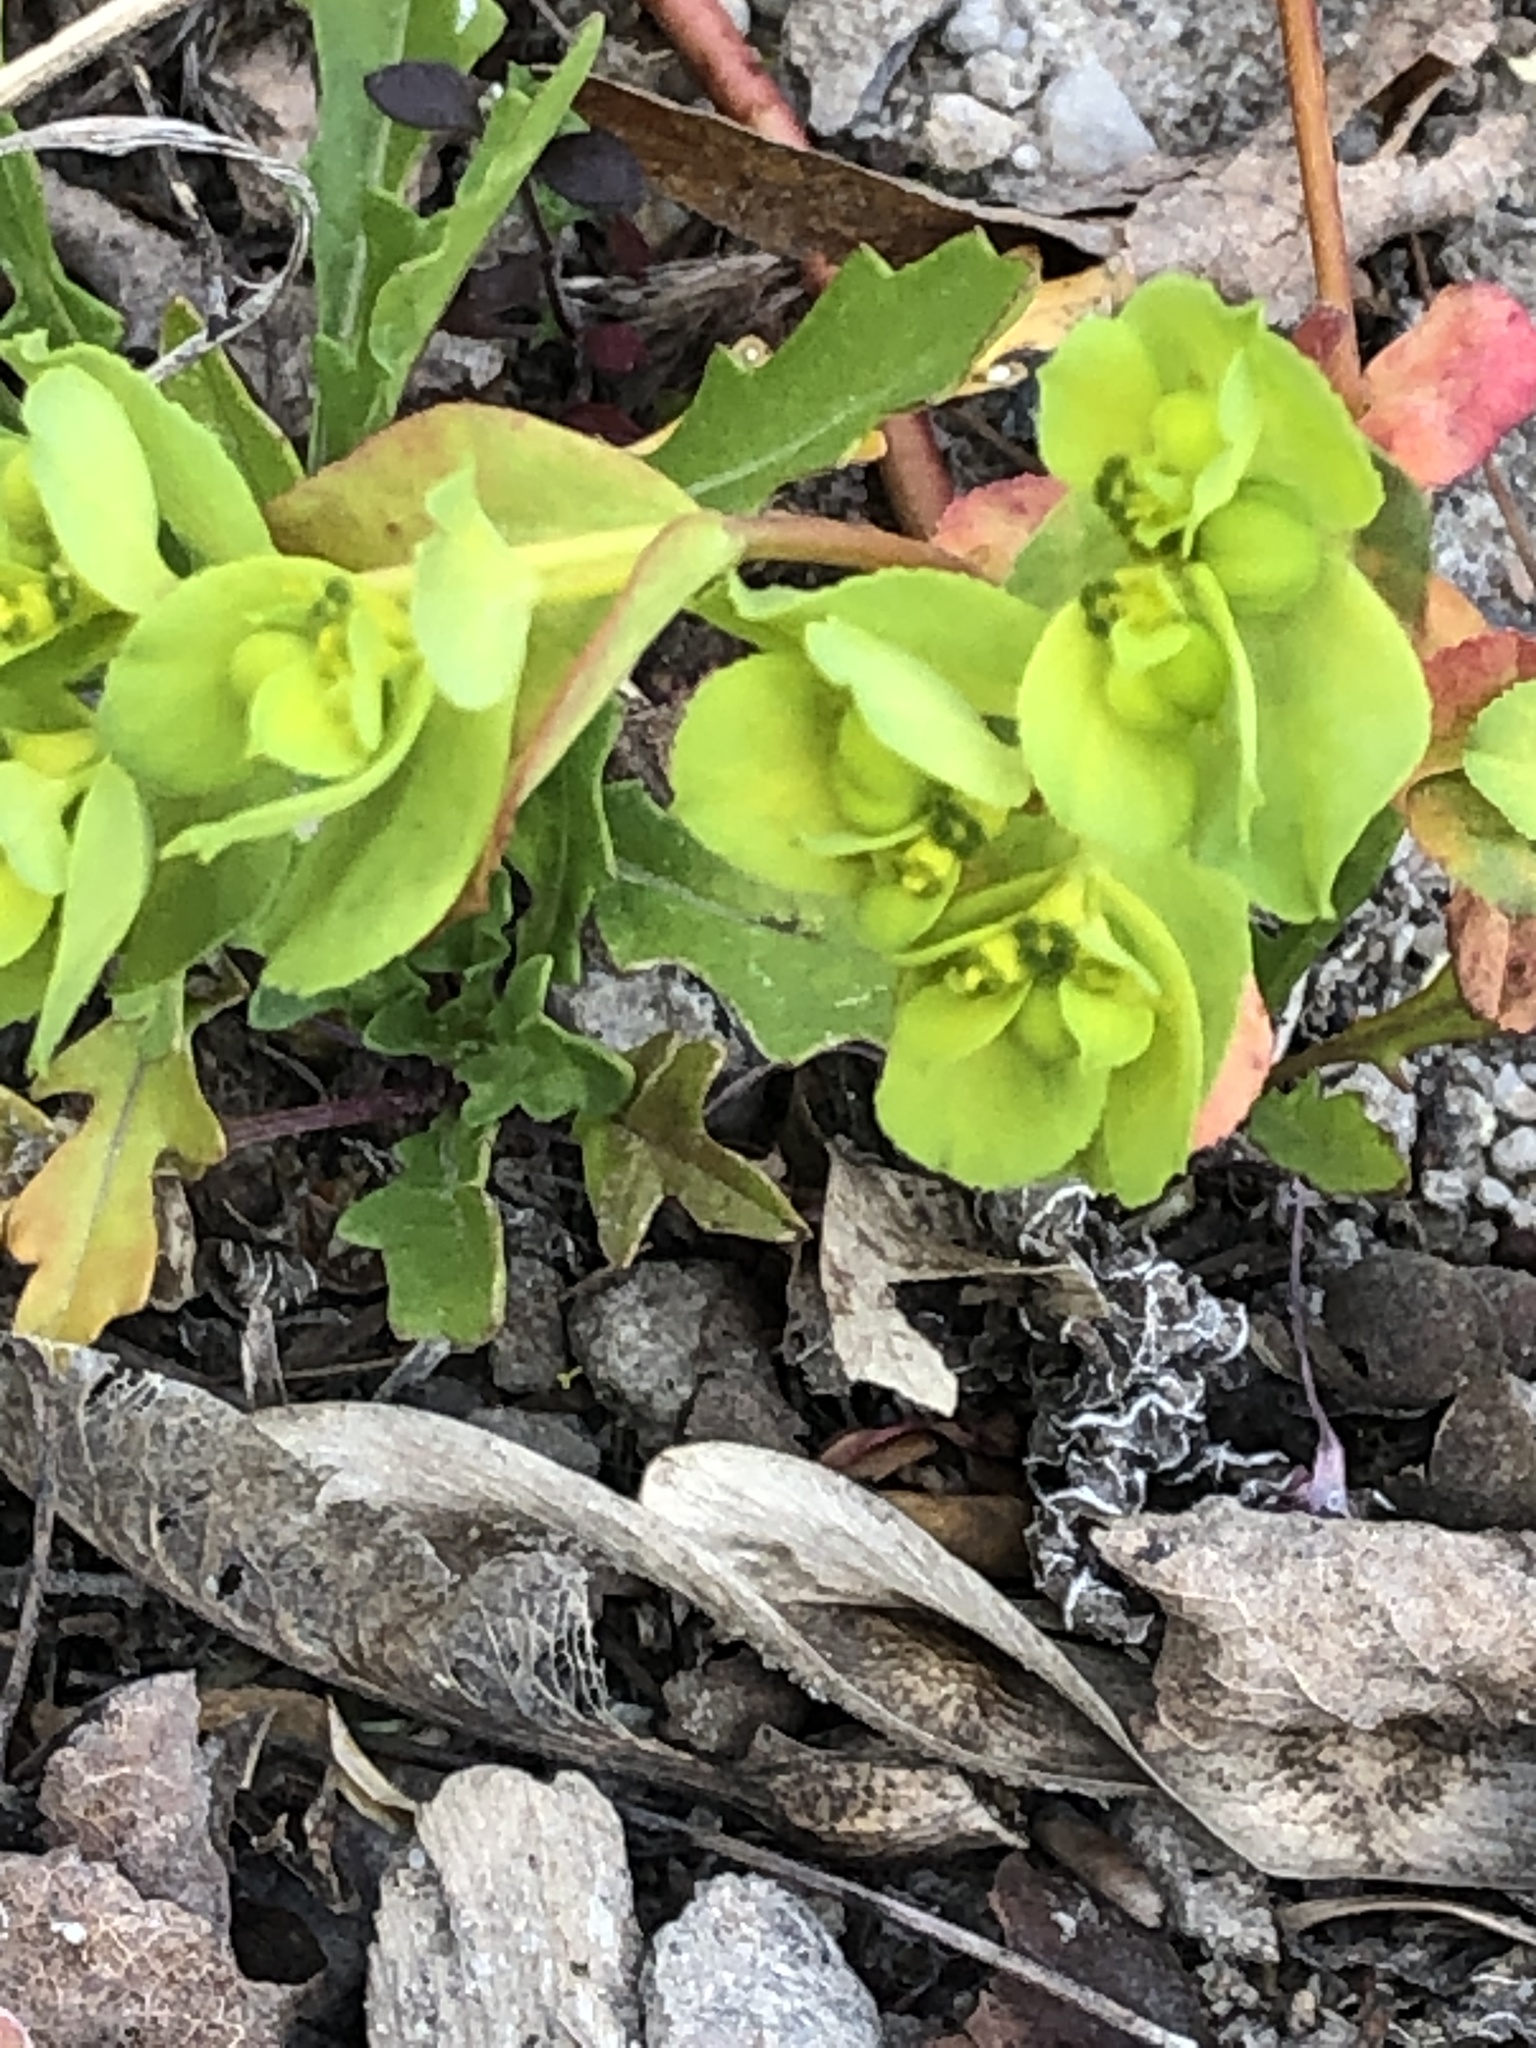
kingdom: Plantae
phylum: Tracheophyta
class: Magnoliopsida
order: Malpighiales
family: Euphorbiaceae
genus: Euphorbia
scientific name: Euphorbia helioscopia
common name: Sun spurge
